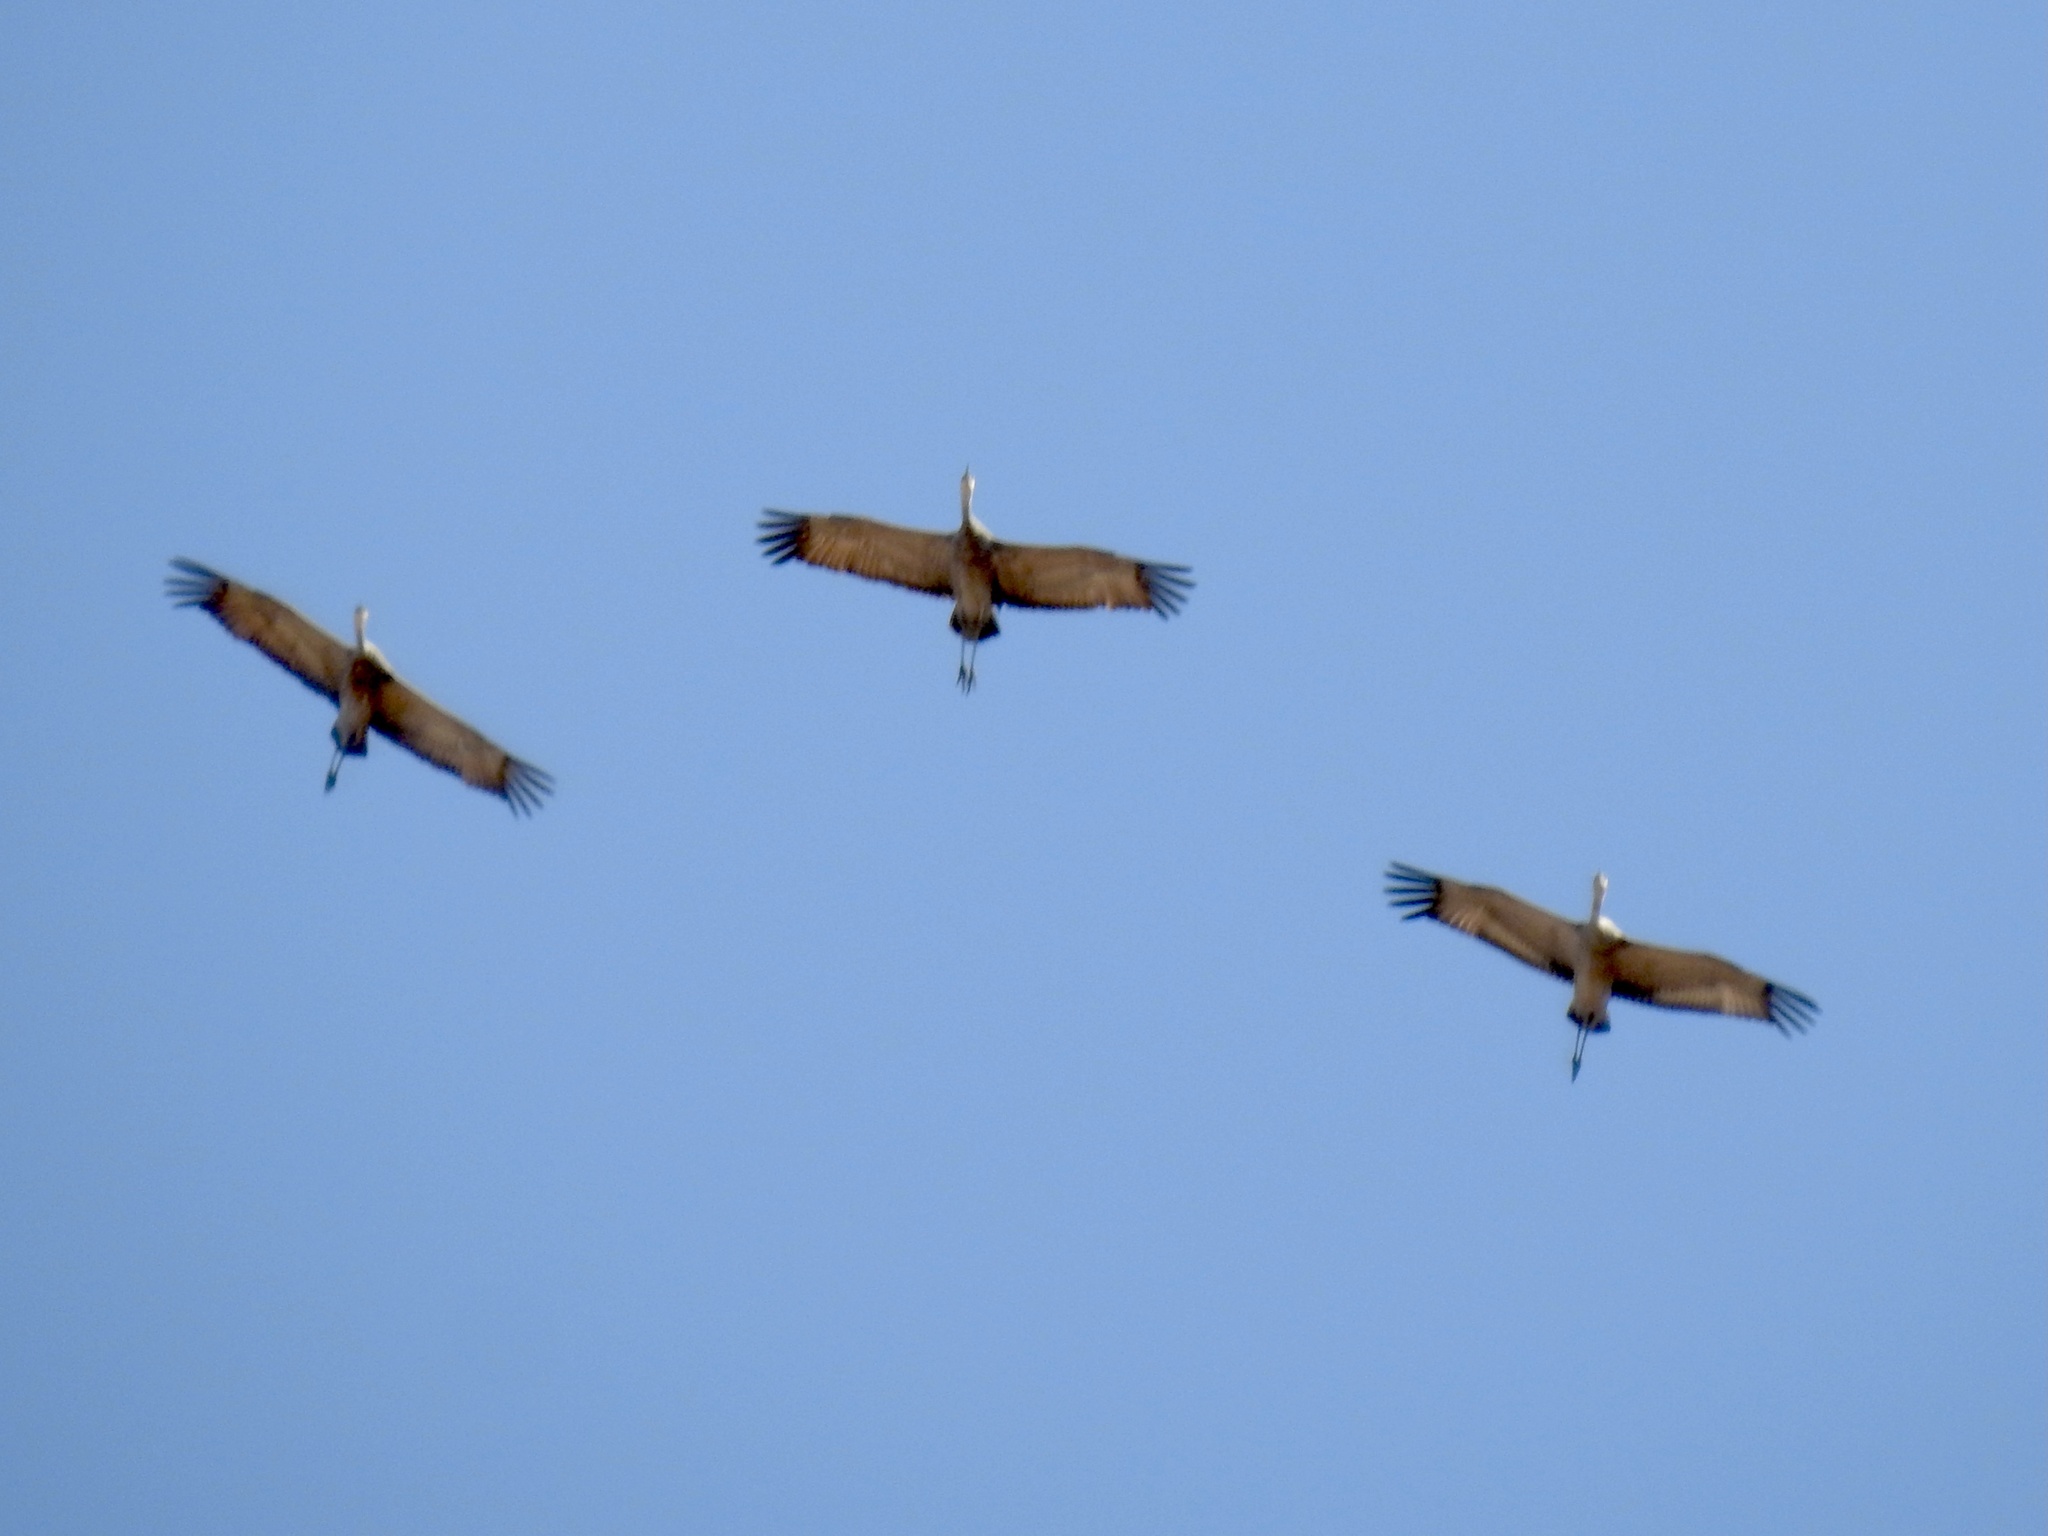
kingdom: Animalia
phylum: Chordata
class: Aves
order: Gruiformes
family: Gruidae
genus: Grus
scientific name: Grus canadensis
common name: Sandhill crane
